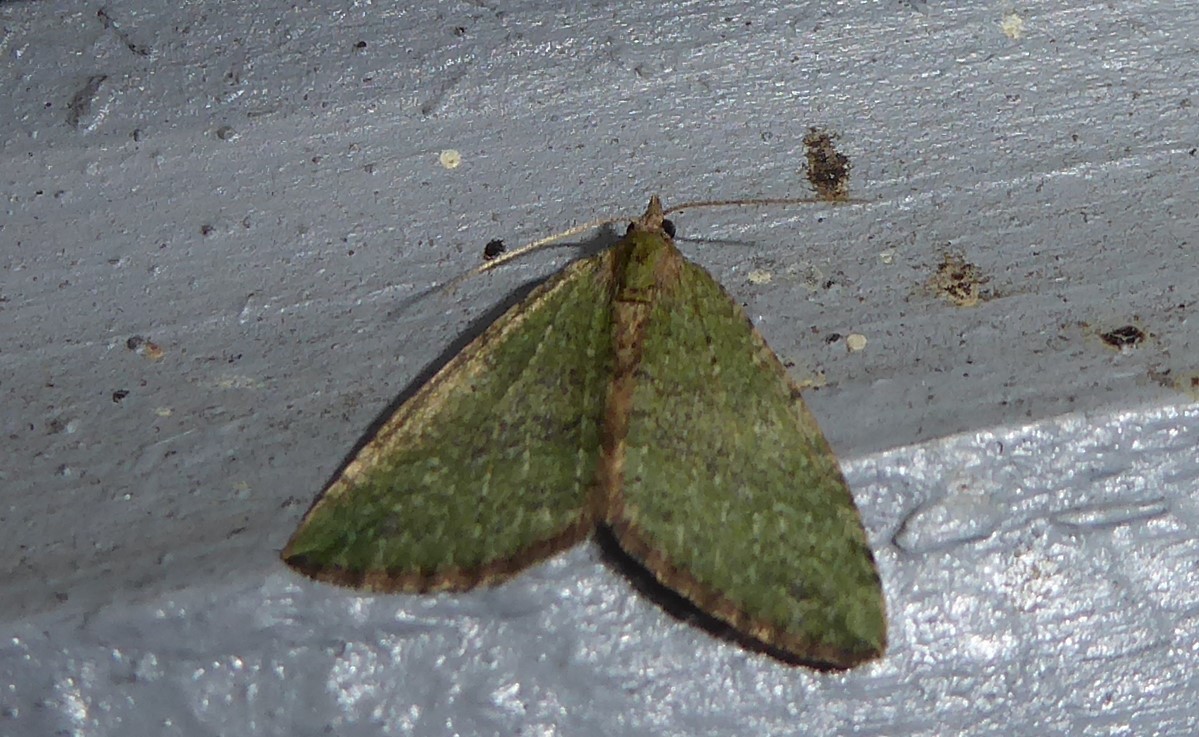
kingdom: Animalia
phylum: Arthropoda
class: Insecta
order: Lepidoptera
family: Geometridae
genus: Epyaxa
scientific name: Epyaxa rosearia
